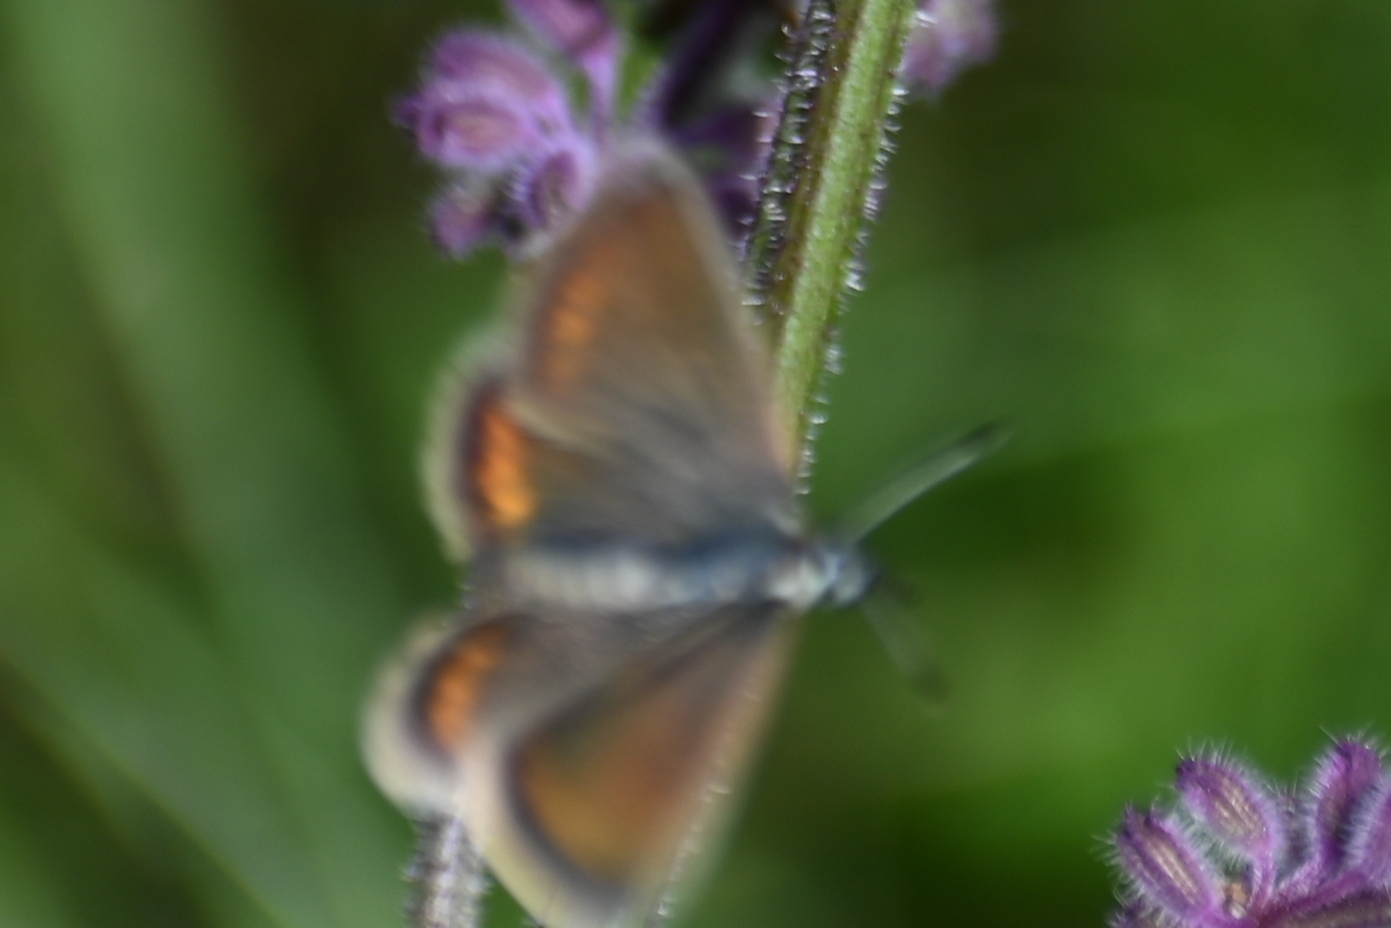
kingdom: Animalia
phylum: Arthropoda
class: Insecta
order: Lepidoptera
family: Lycaenidae
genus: Plebejus
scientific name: Plebejus argus
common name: Silver-studded blue
